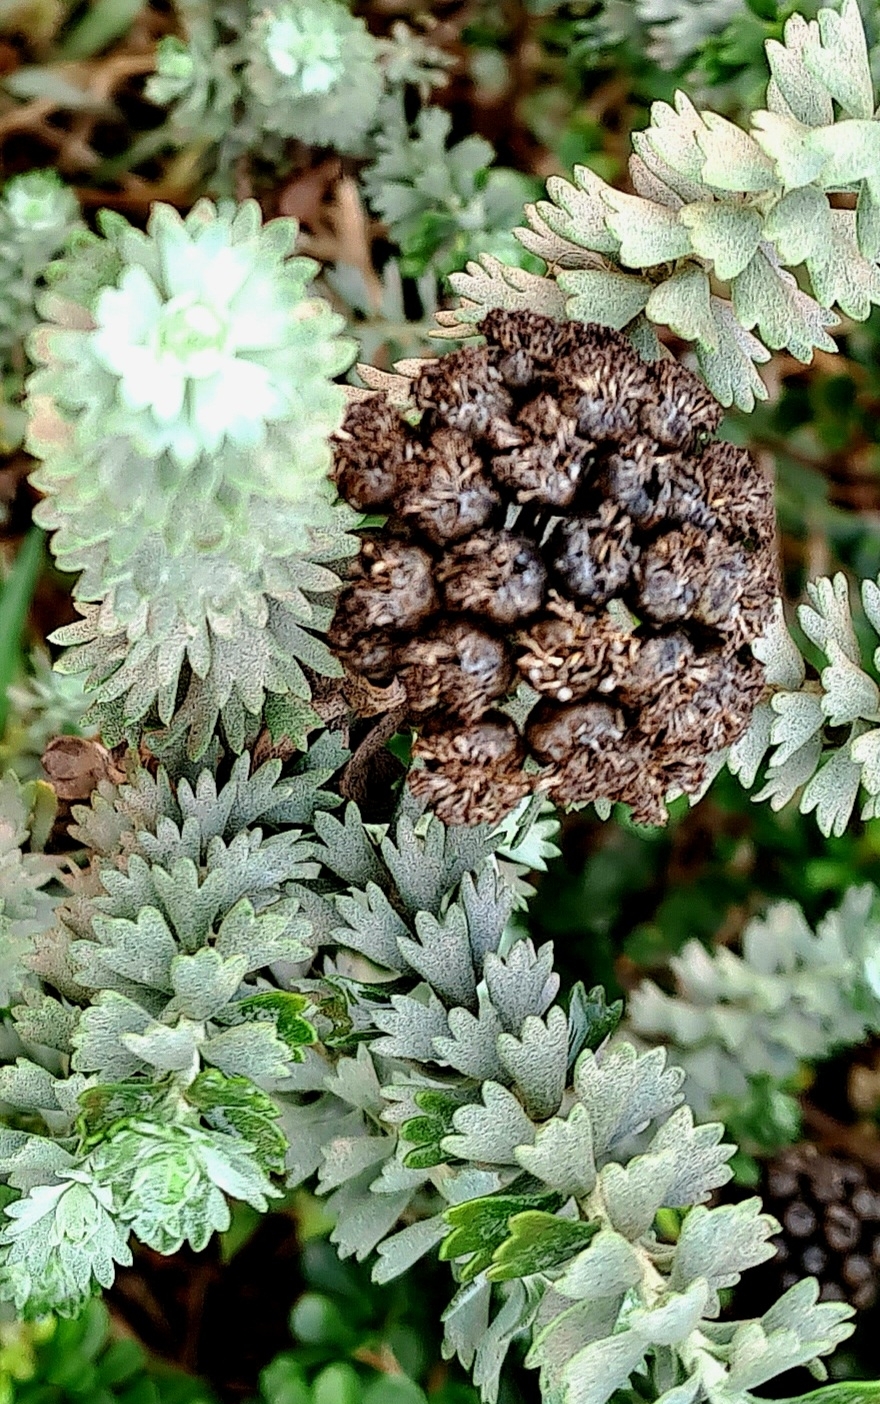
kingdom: Plantae
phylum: Tracheophyta
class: Magnoliopsida
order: Asterales
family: Asteraceae
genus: Athanasia
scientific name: Athanasia trifurcata
